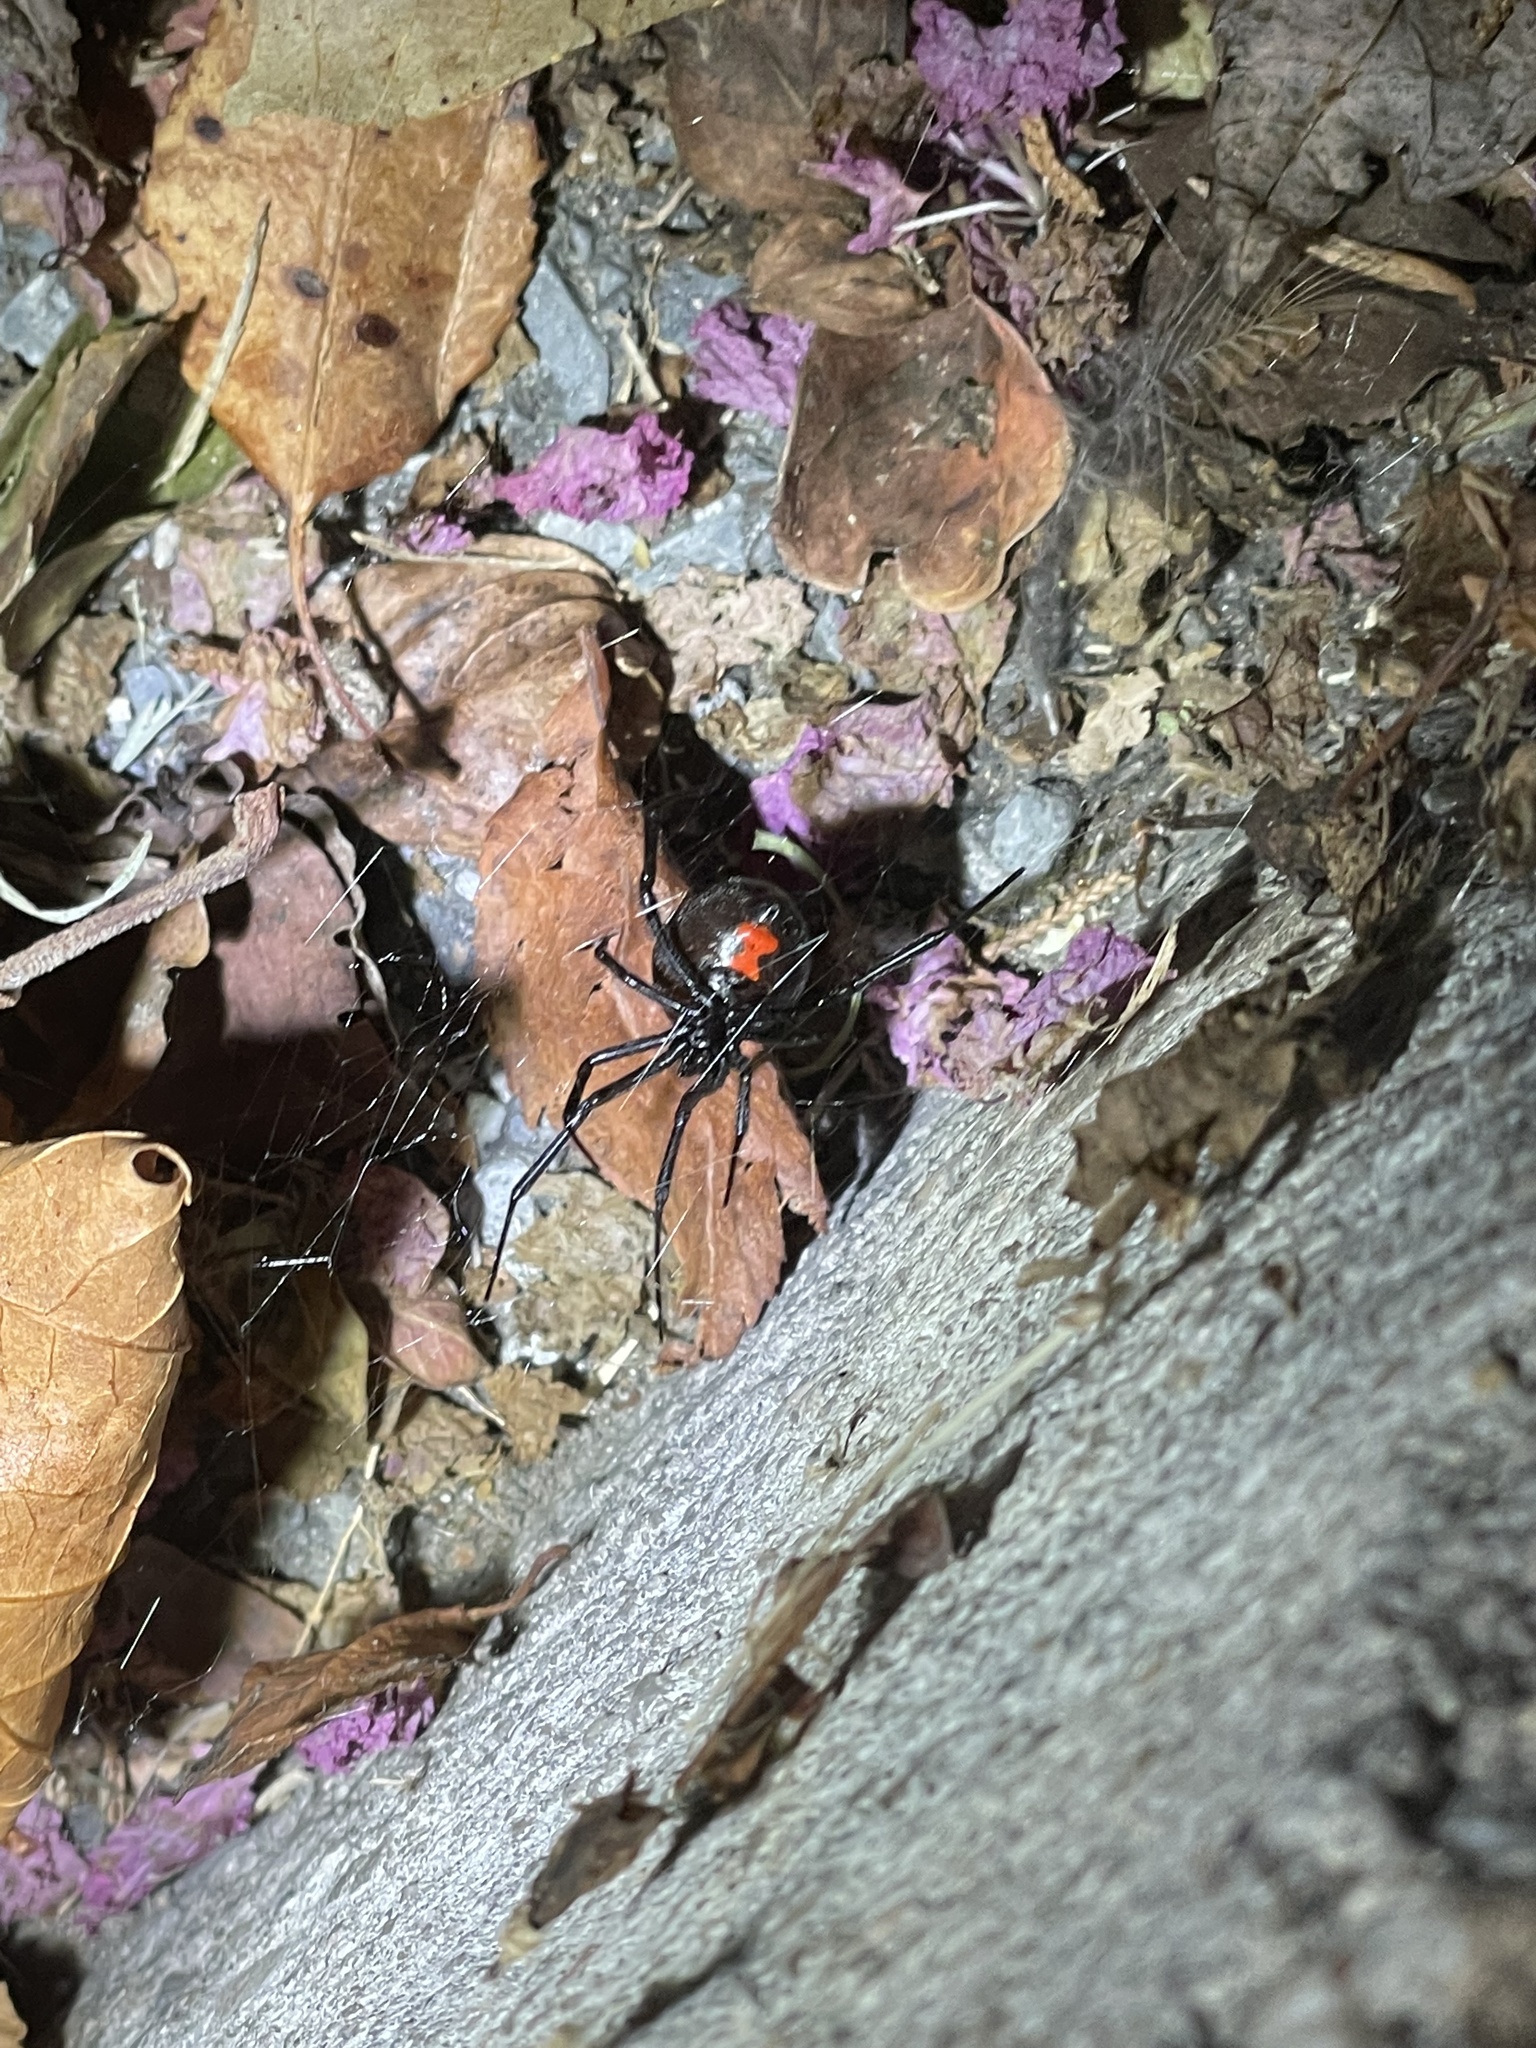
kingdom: Animalia
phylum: Arthropoda
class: Arachnida
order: Araneae
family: Theridiidae
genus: Latrodectus
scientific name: Latrodectus mactans
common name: Cobweb spiders
